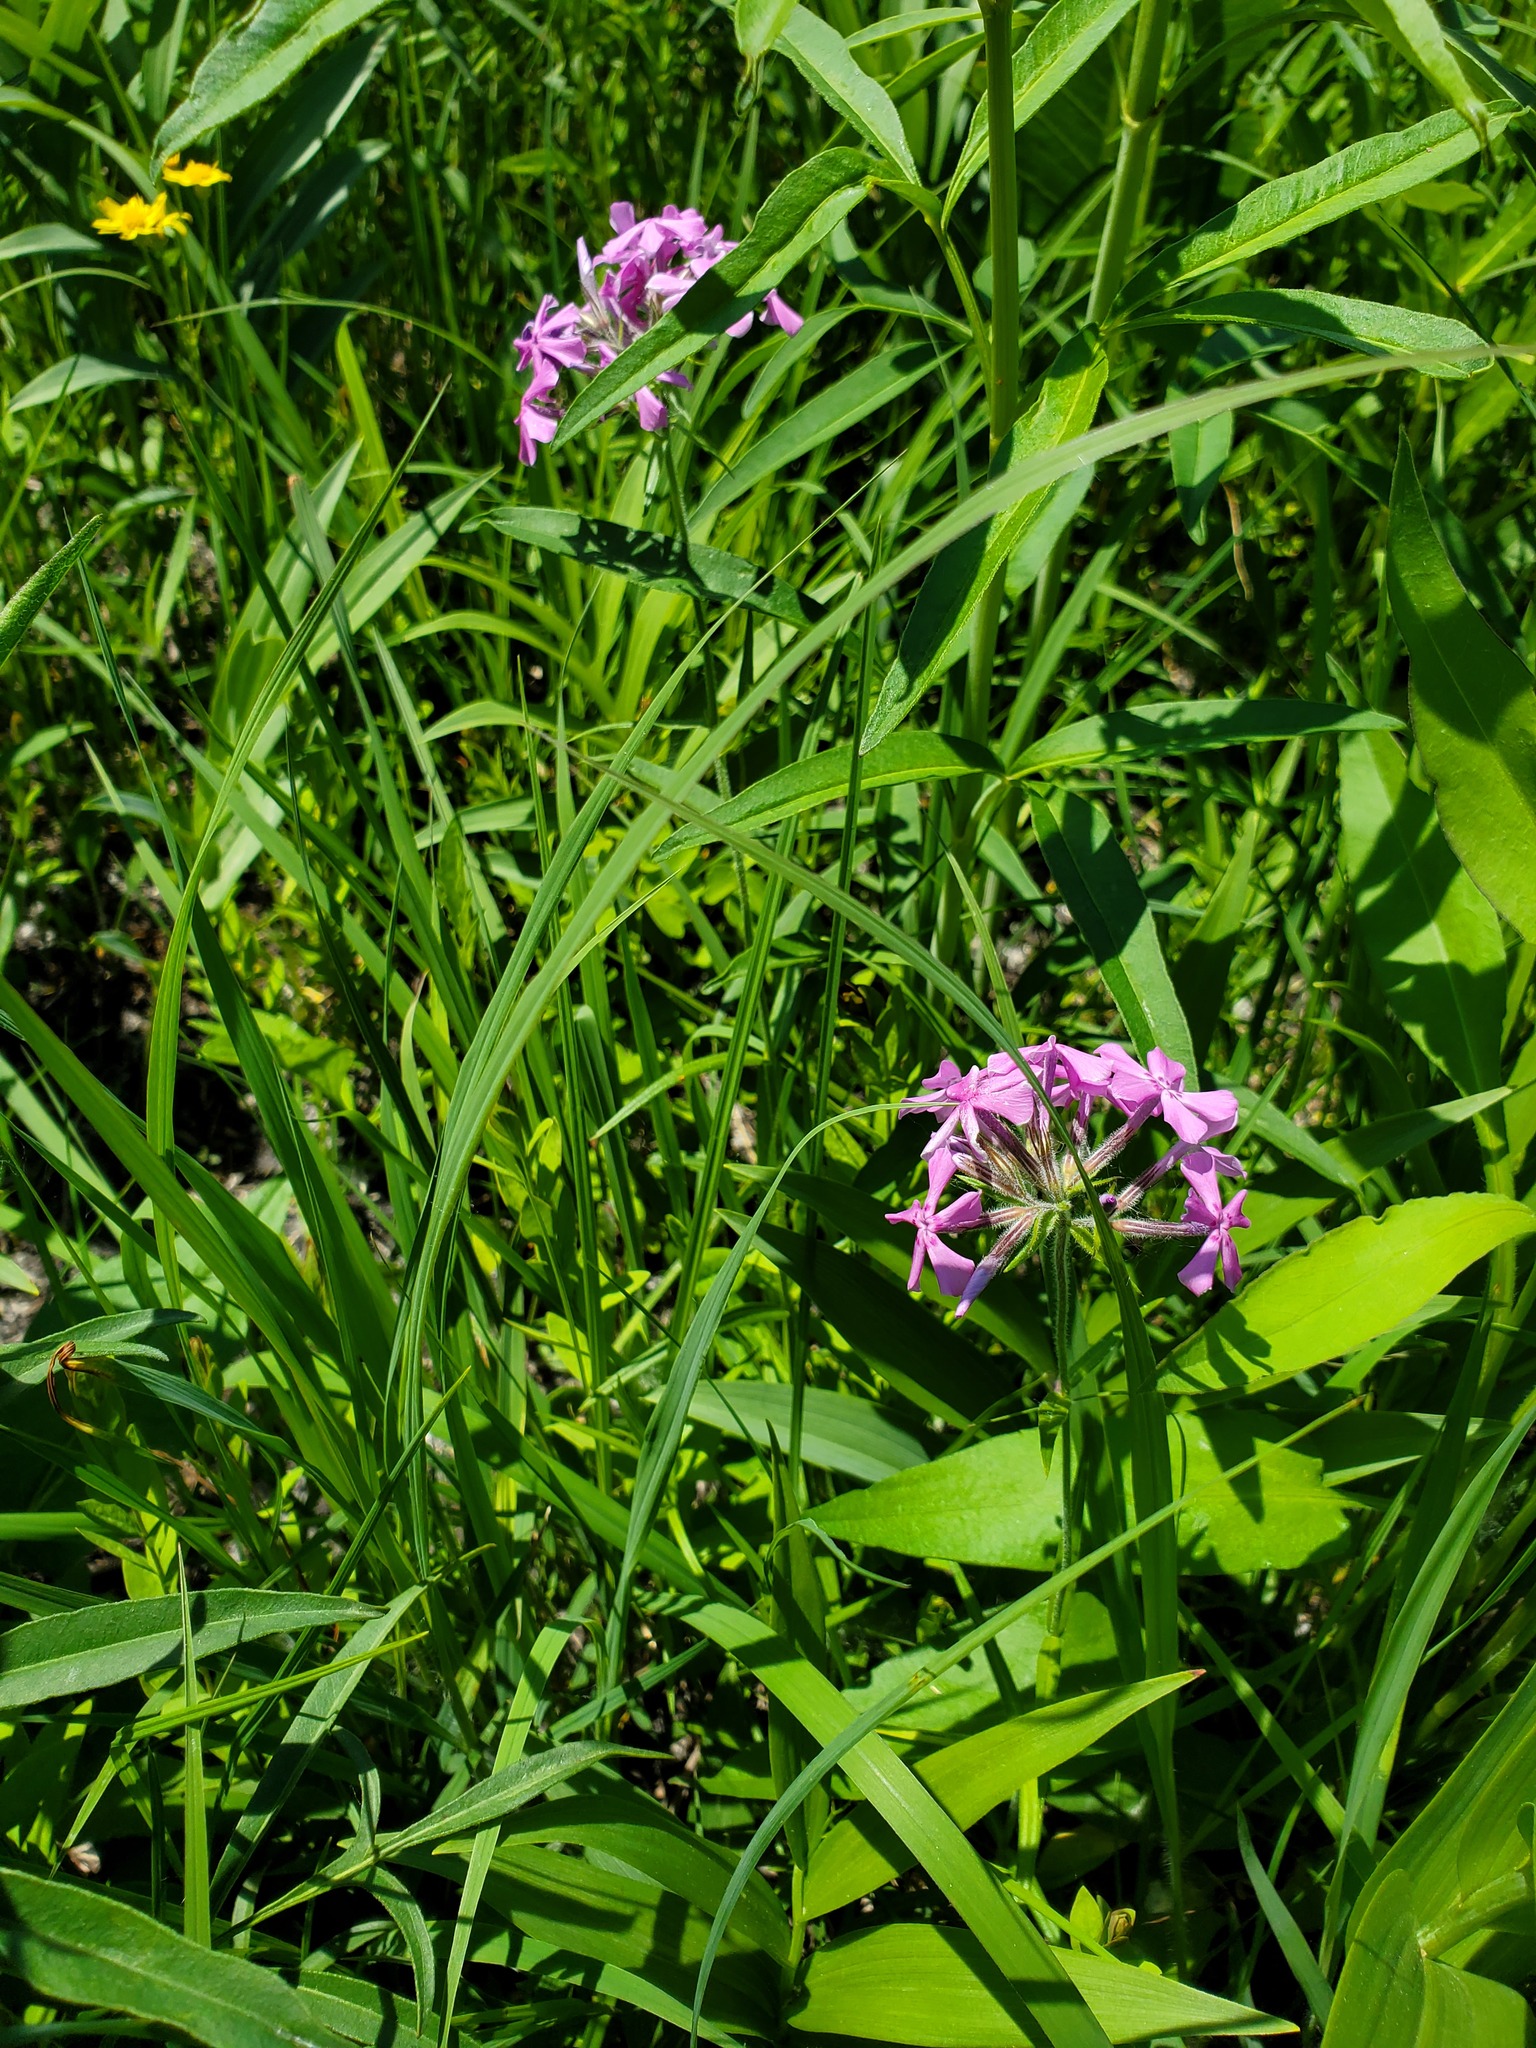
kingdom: Plantae
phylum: Tracheophyta
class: Magnoliopsida
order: Ericales
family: Polemoniaceae
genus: Phlox
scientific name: Phlox pilosa
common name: Prairie phlox
